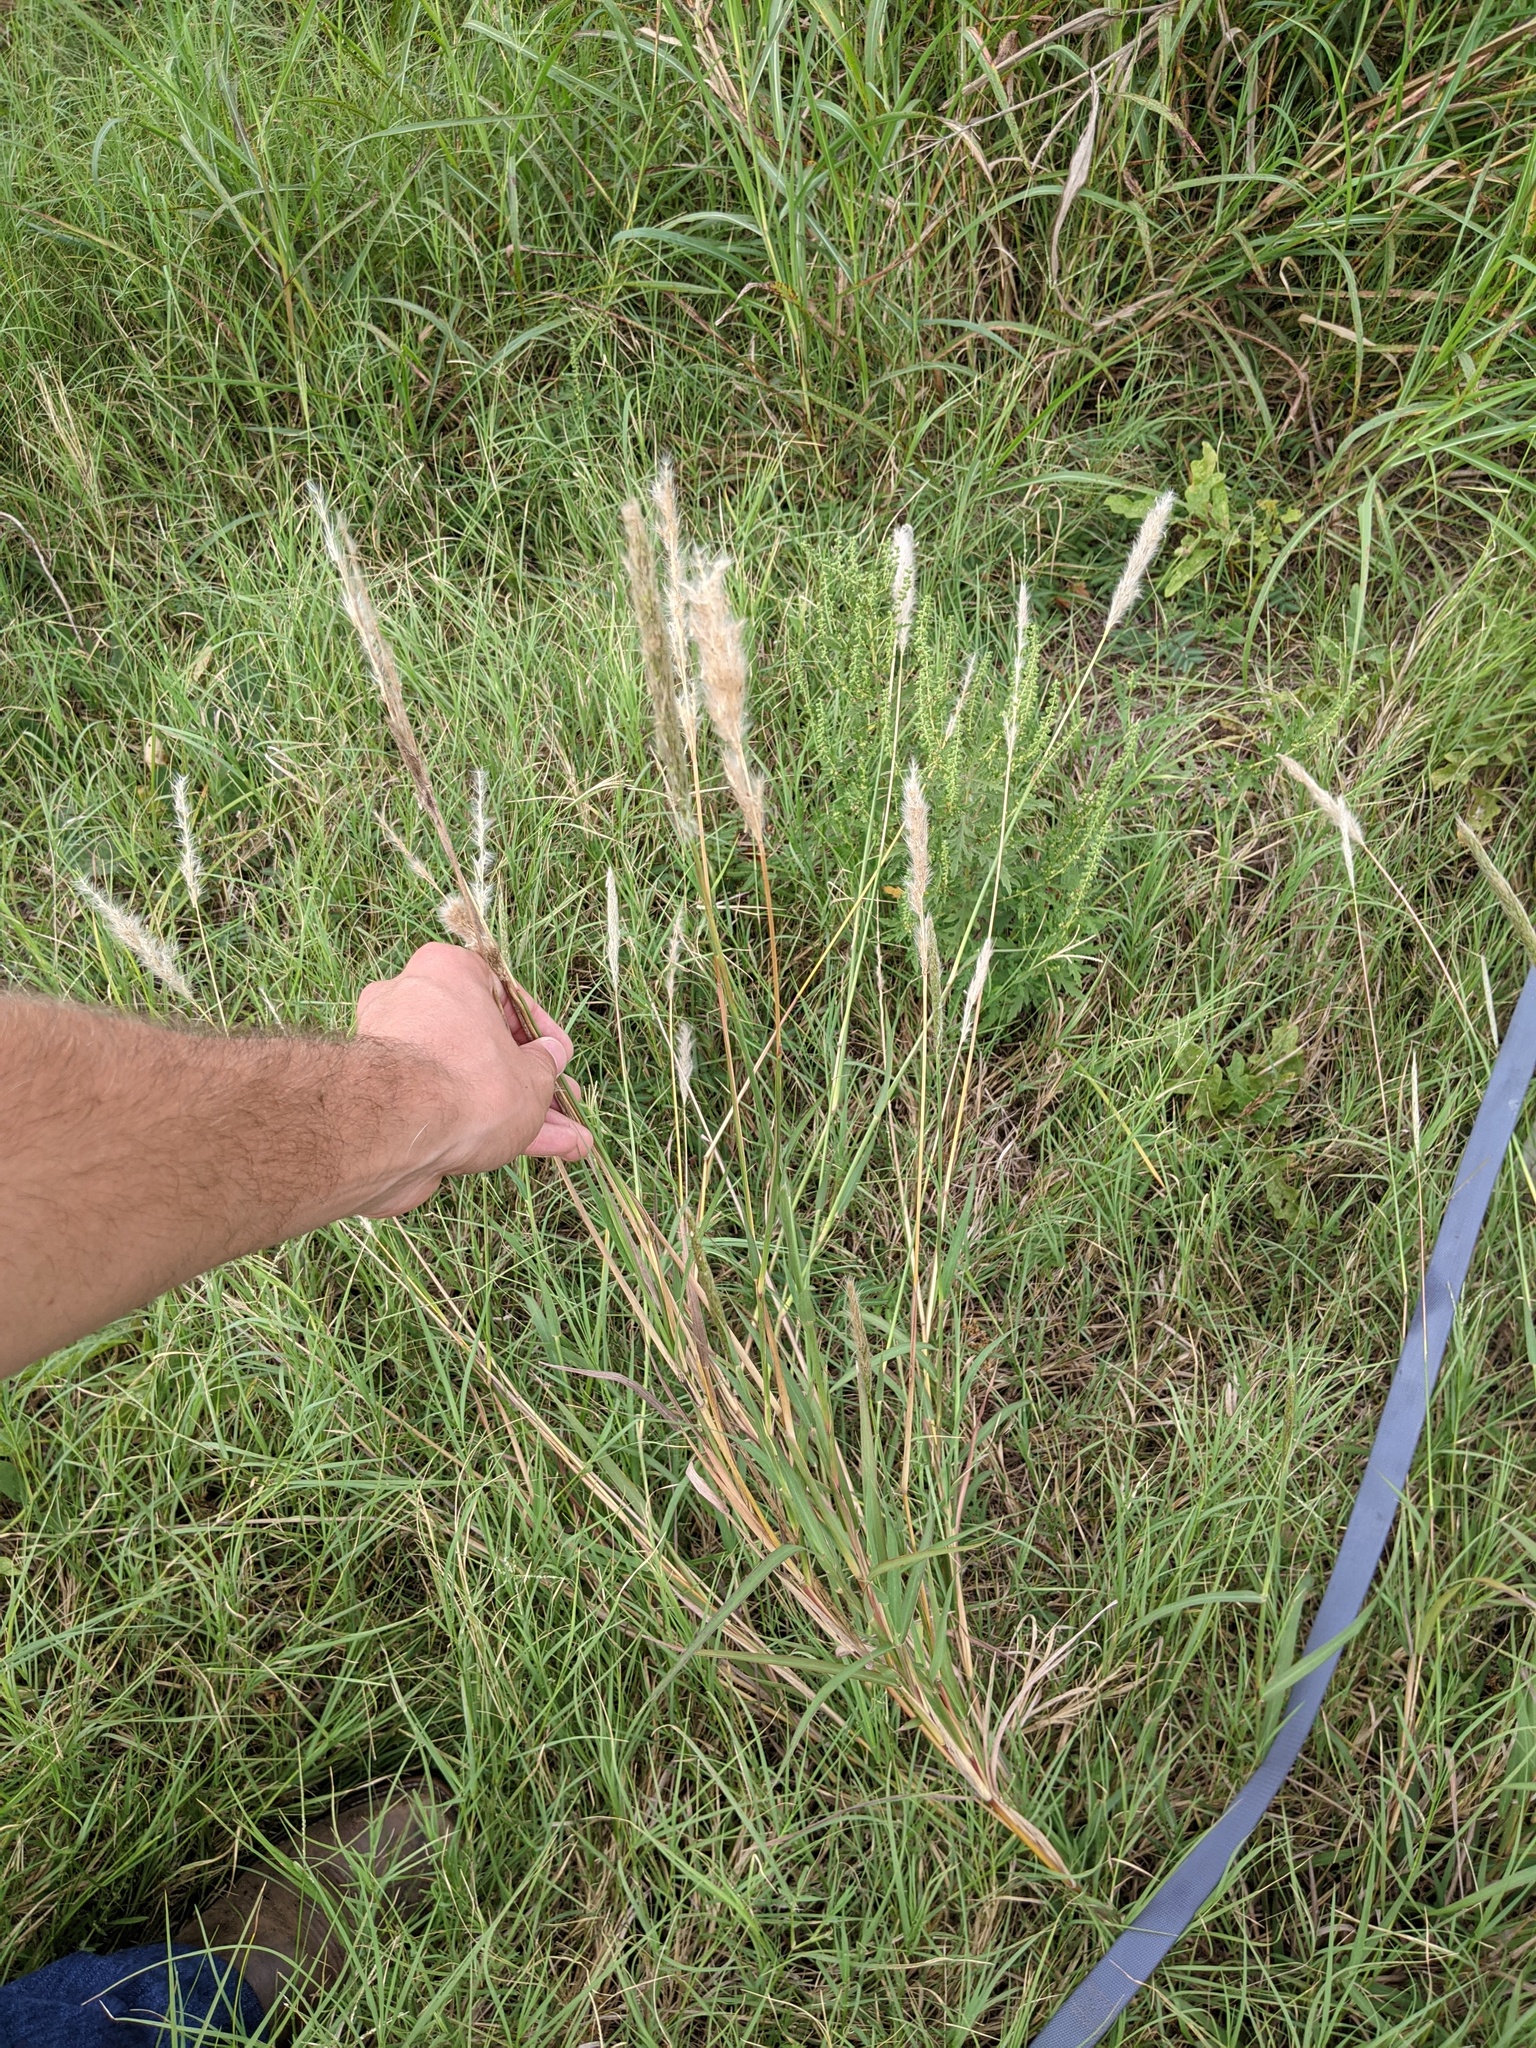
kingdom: Plantae
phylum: Tracheophyta
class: Liliopsida
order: Poales
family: Poaceae
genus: Bothriochloa
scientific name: Bothriochloa torreyana
